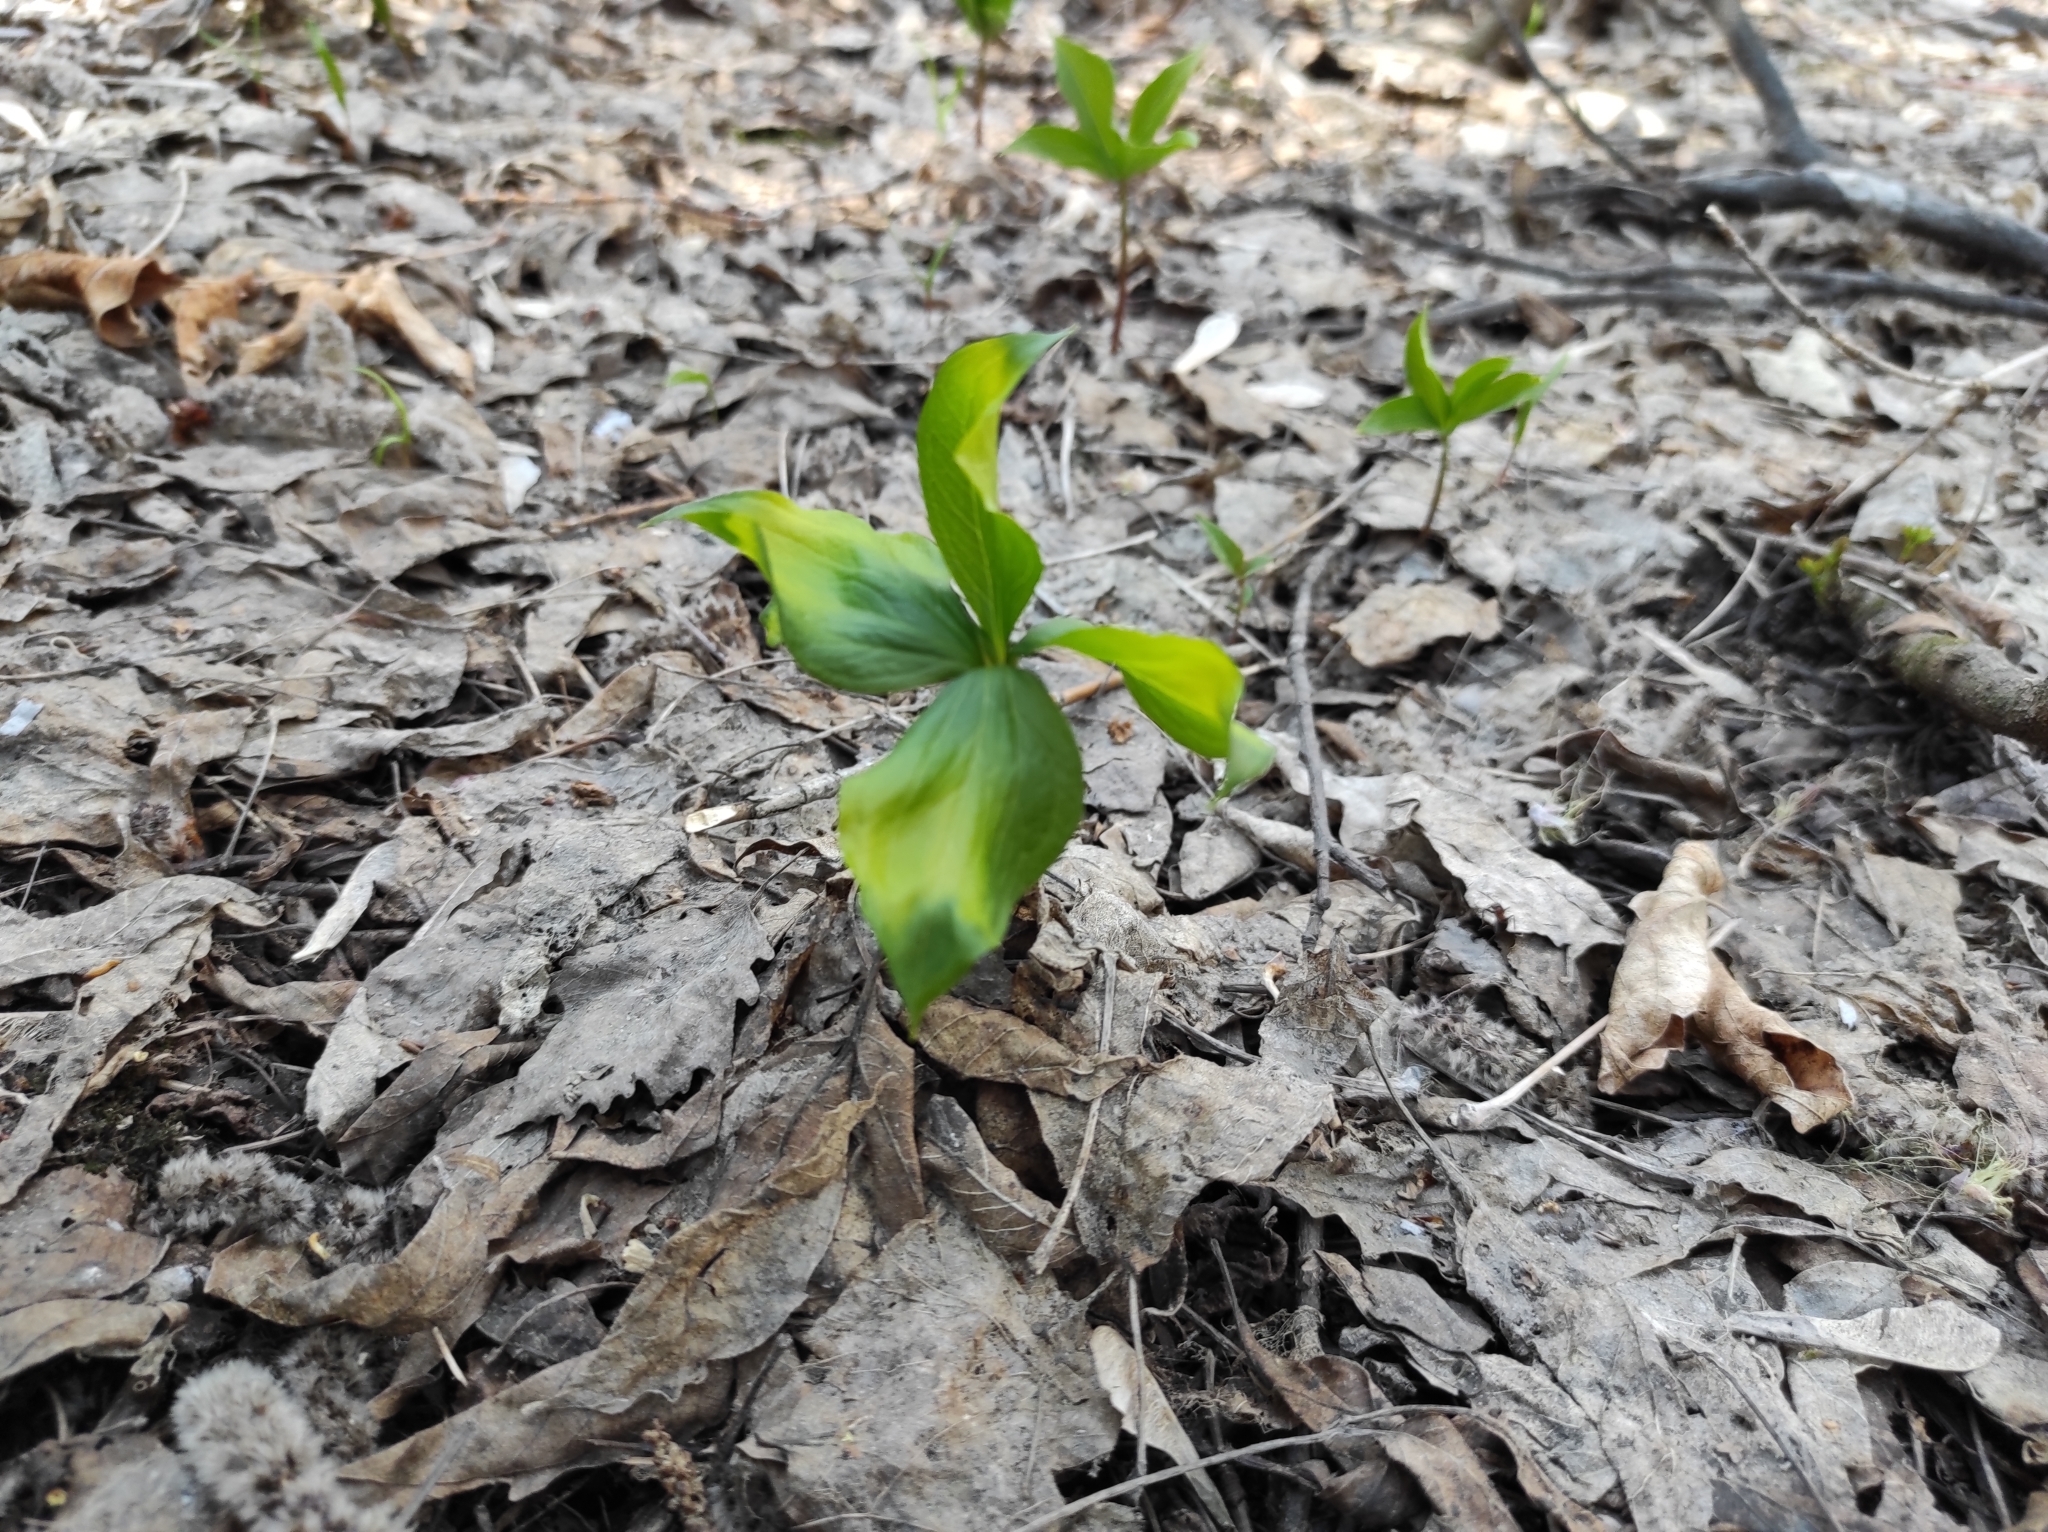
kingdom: Plantae
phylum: Tracheophyta
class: Liliopsida
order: Liliales
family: Melanthiaceae
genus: Paris
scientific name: Paris quadrifolia
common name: Herb-paris
